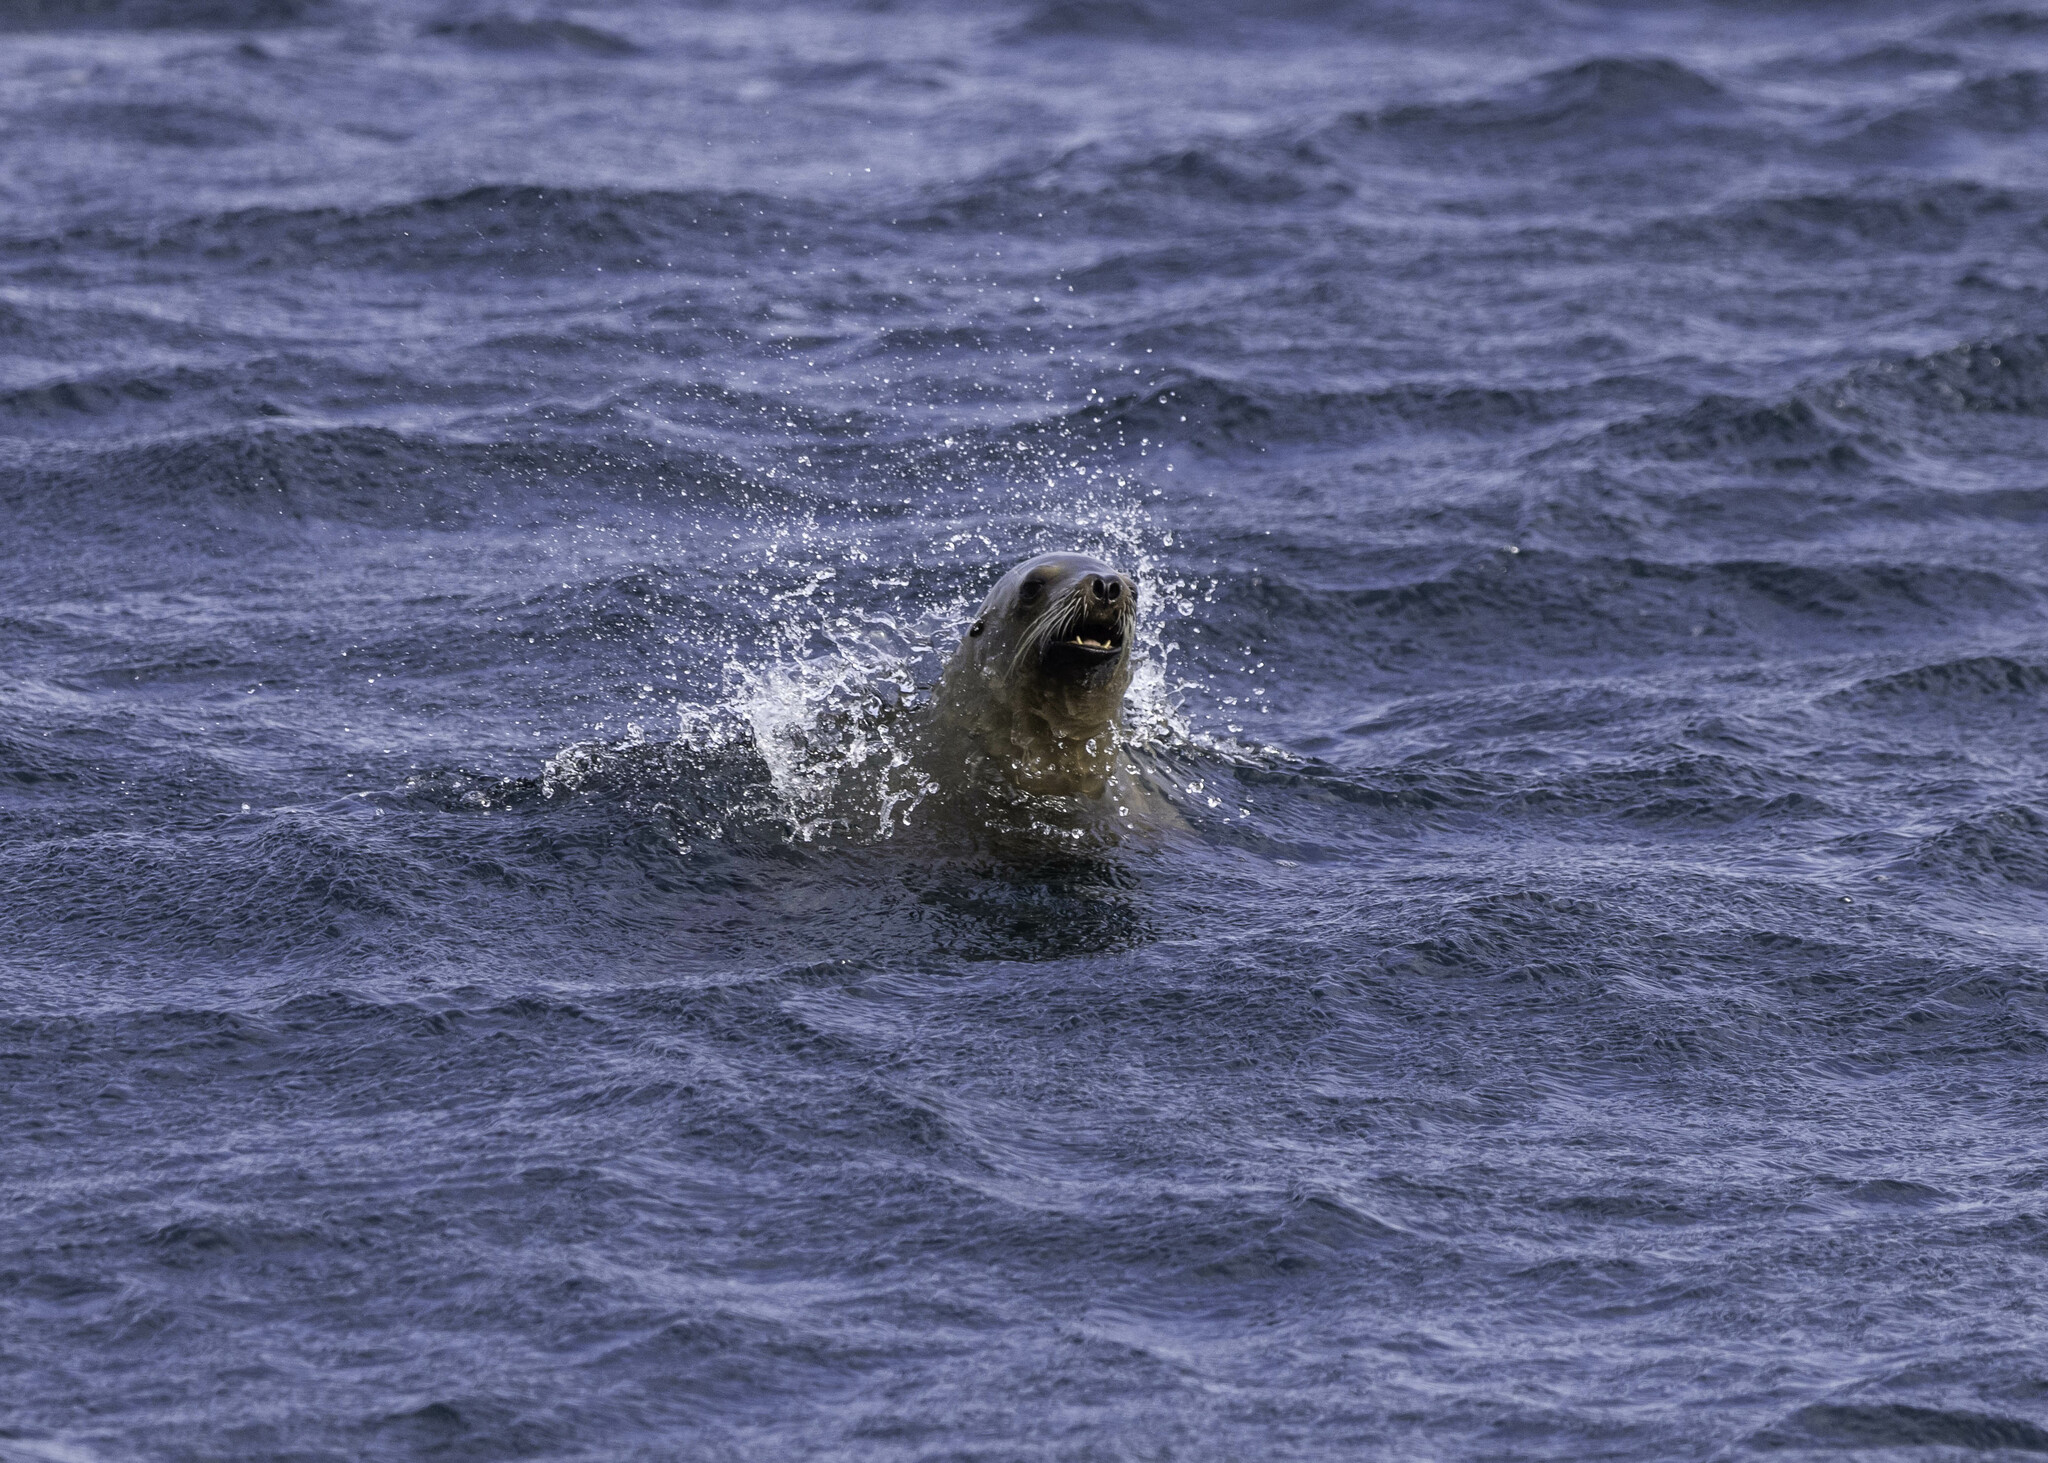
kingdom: Animalia
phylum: Chordata
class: Mammalia
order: Carnivora
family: Otariidae
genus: Zalophus
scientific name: Zalophus californianus
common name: California sea lion
